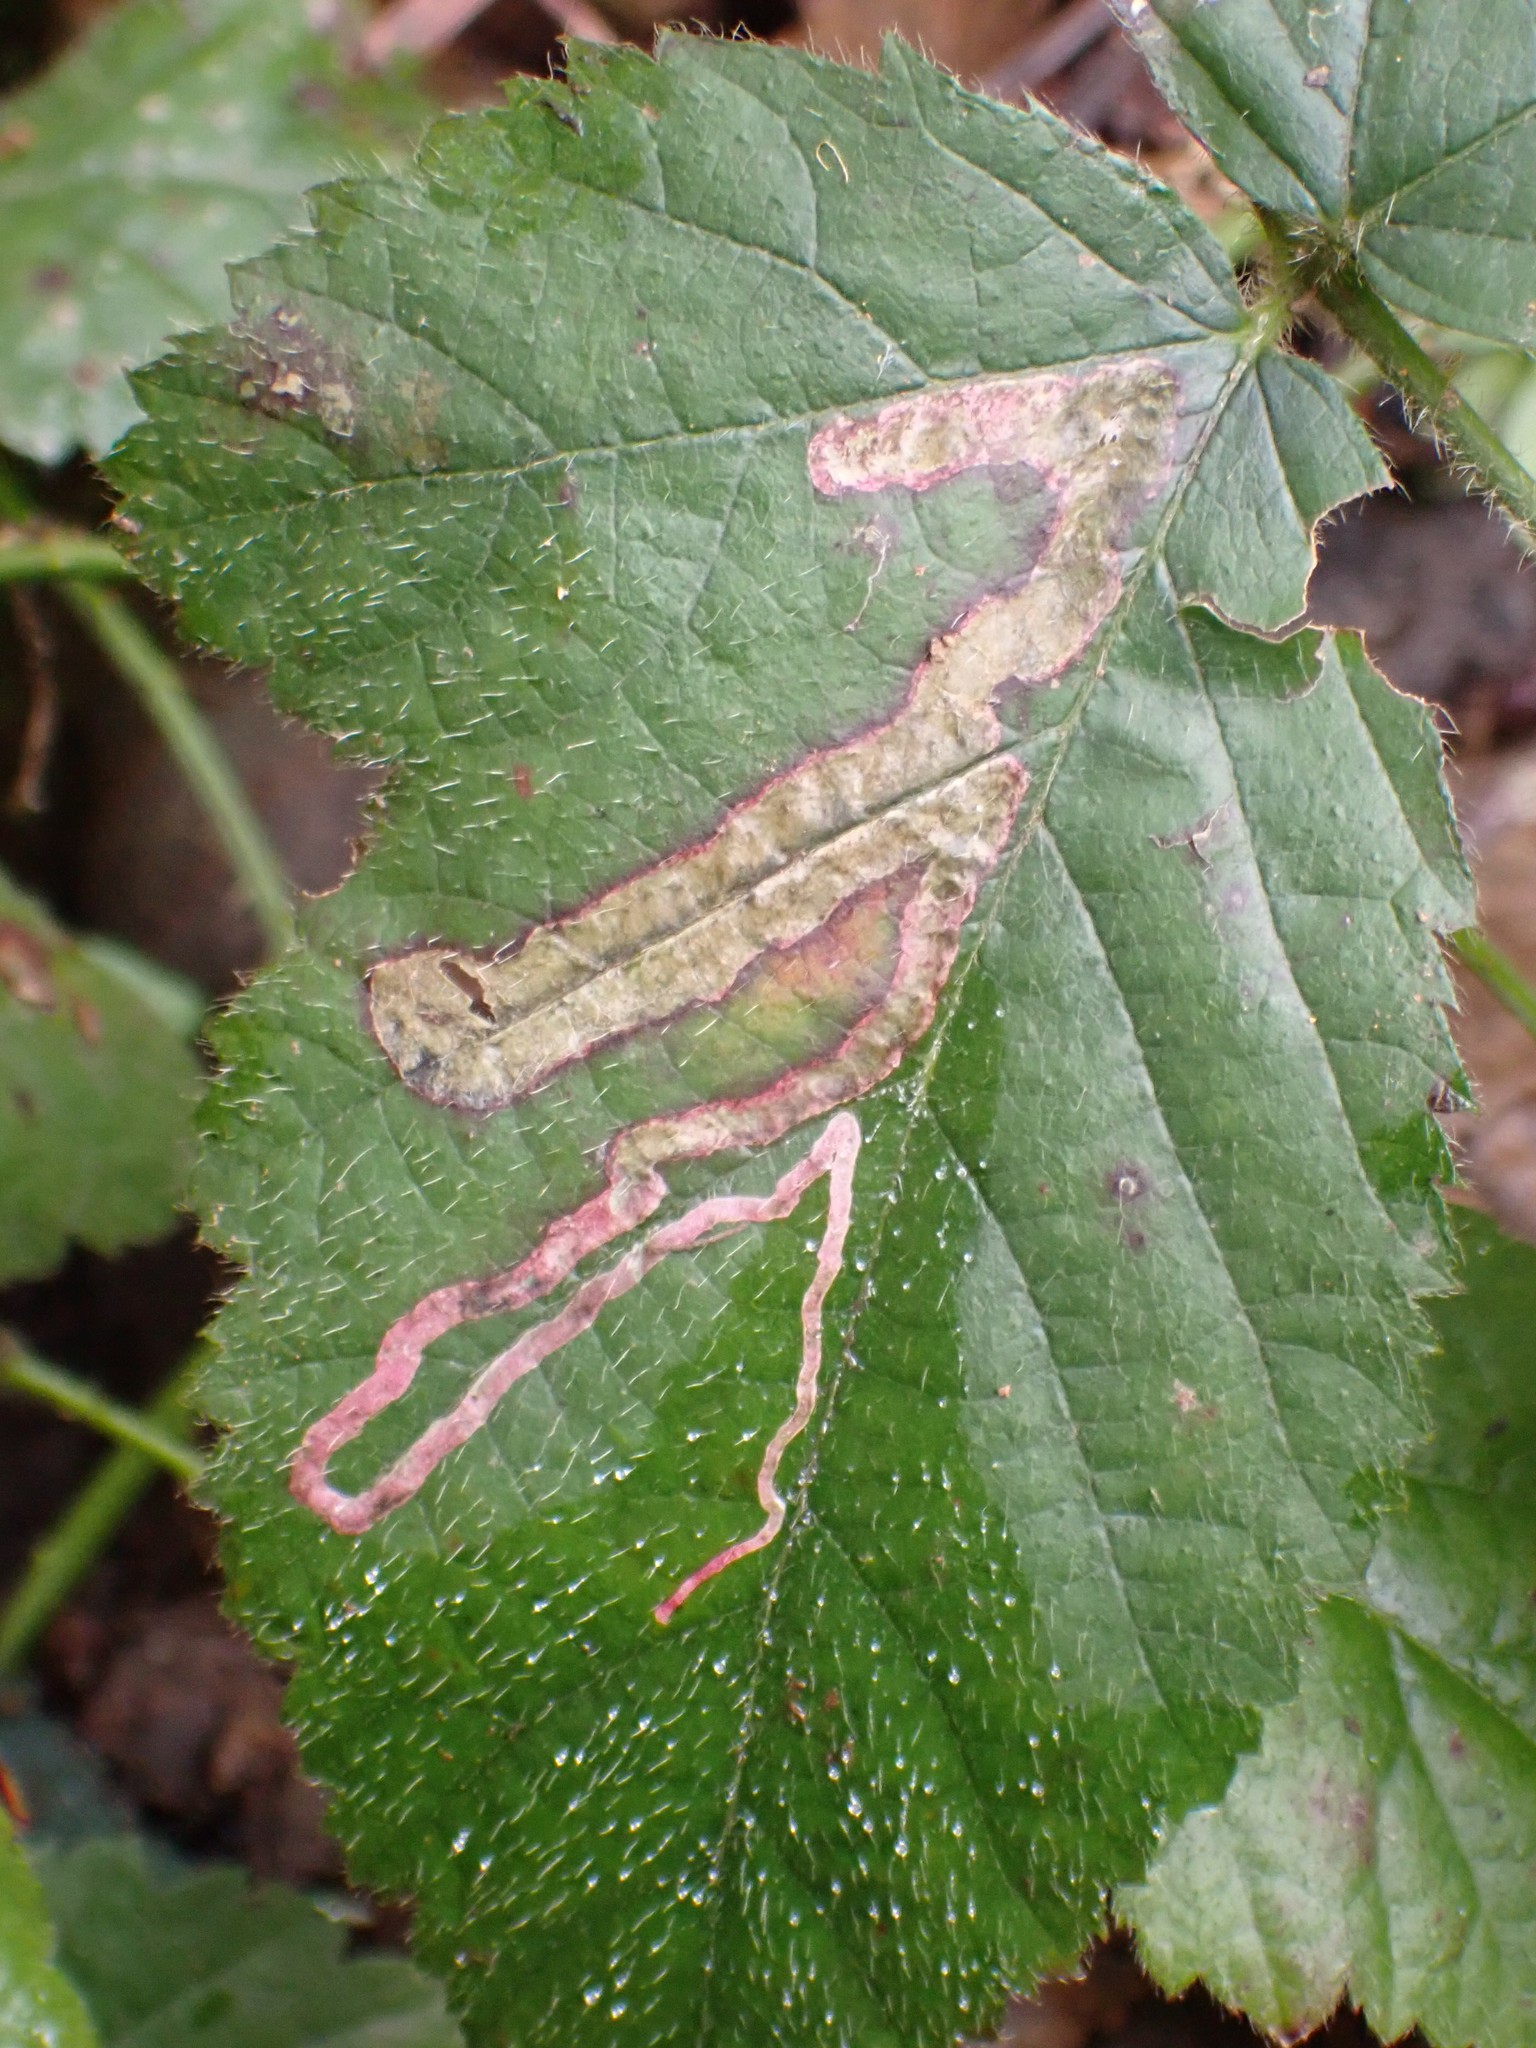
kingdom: Animalia
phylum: Arthropoda
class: Insecta
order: Diptera
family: Agromyzidae
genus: Agromyza
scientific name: Agromyza vockerothi
